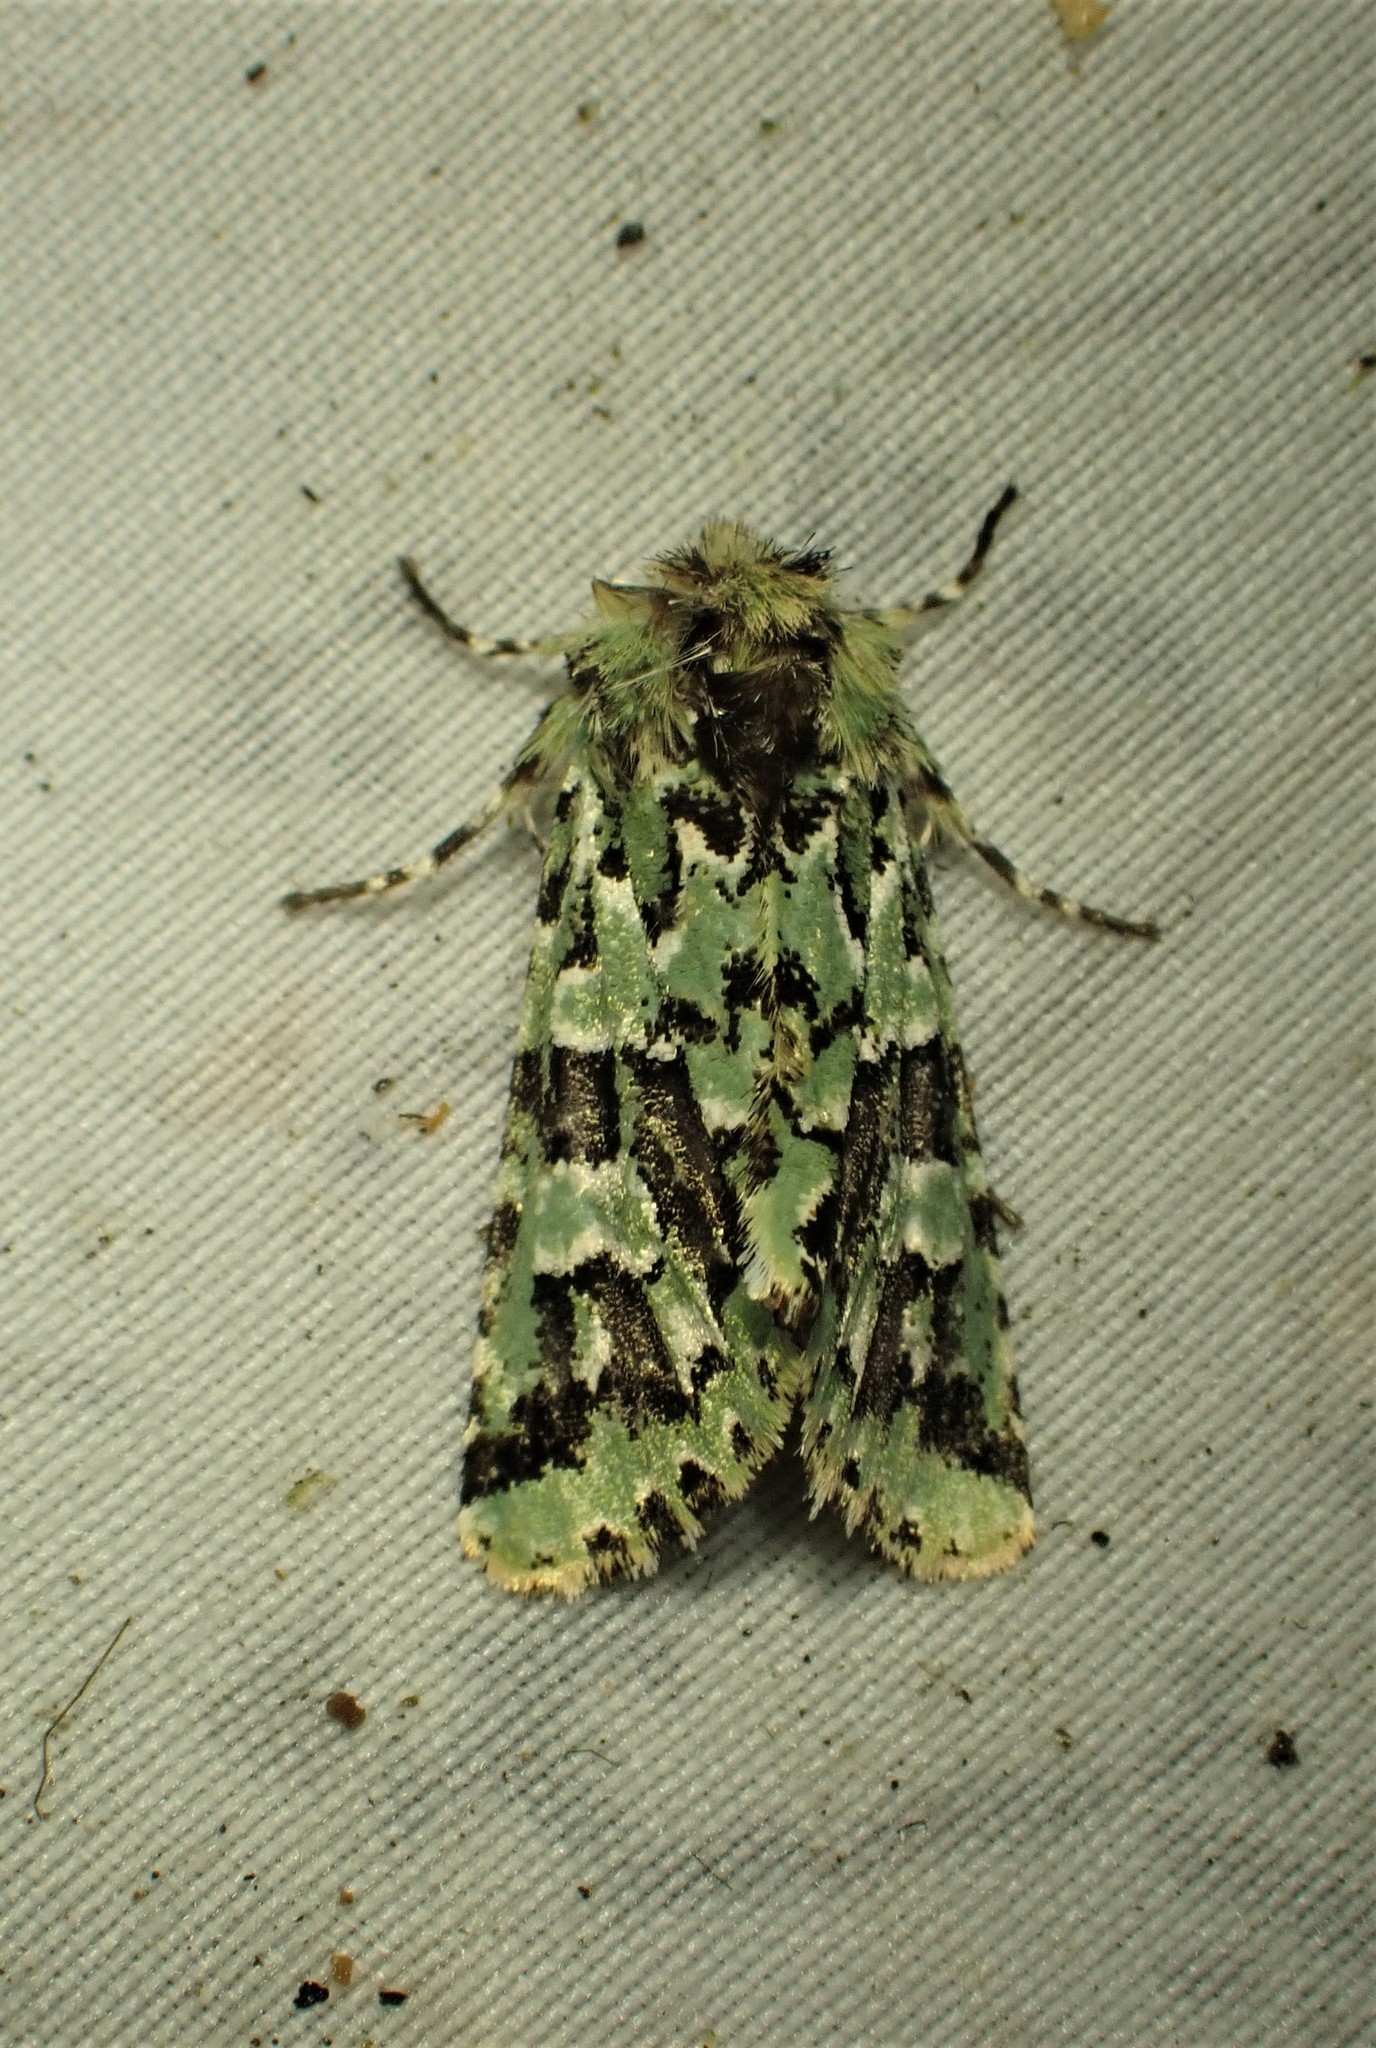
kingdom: Animalia
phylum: Arthropoda
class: Insecta
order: Lepidoptera
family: Noctuidae
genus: Feralia
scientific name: Feralia comstocki
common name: Comstock's sallow
